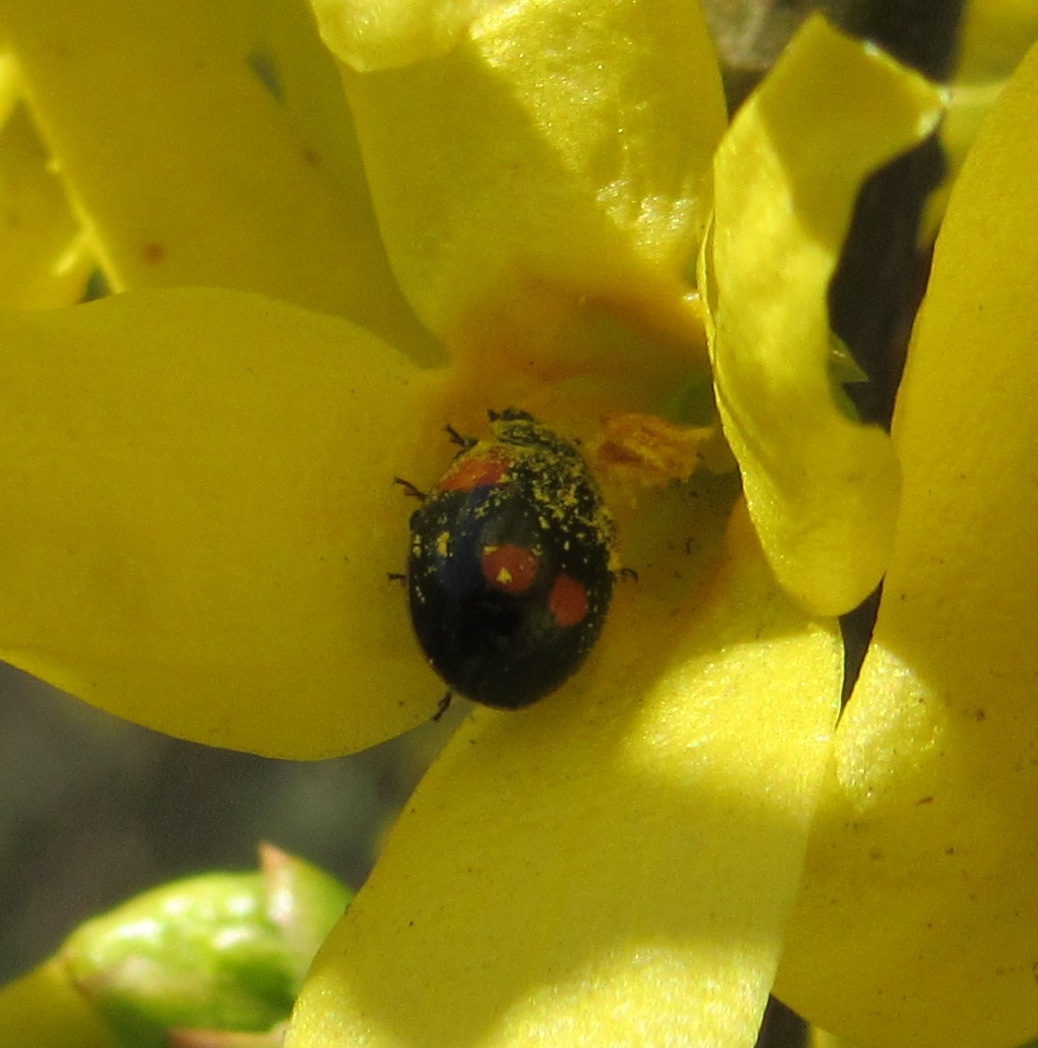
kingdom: Animalia
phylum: Arthropoda
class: Insecta
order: Coleoptera
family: Coccinellidae
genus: Adalia
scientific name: Adalia bipunctata
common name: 2-spot ladybird
